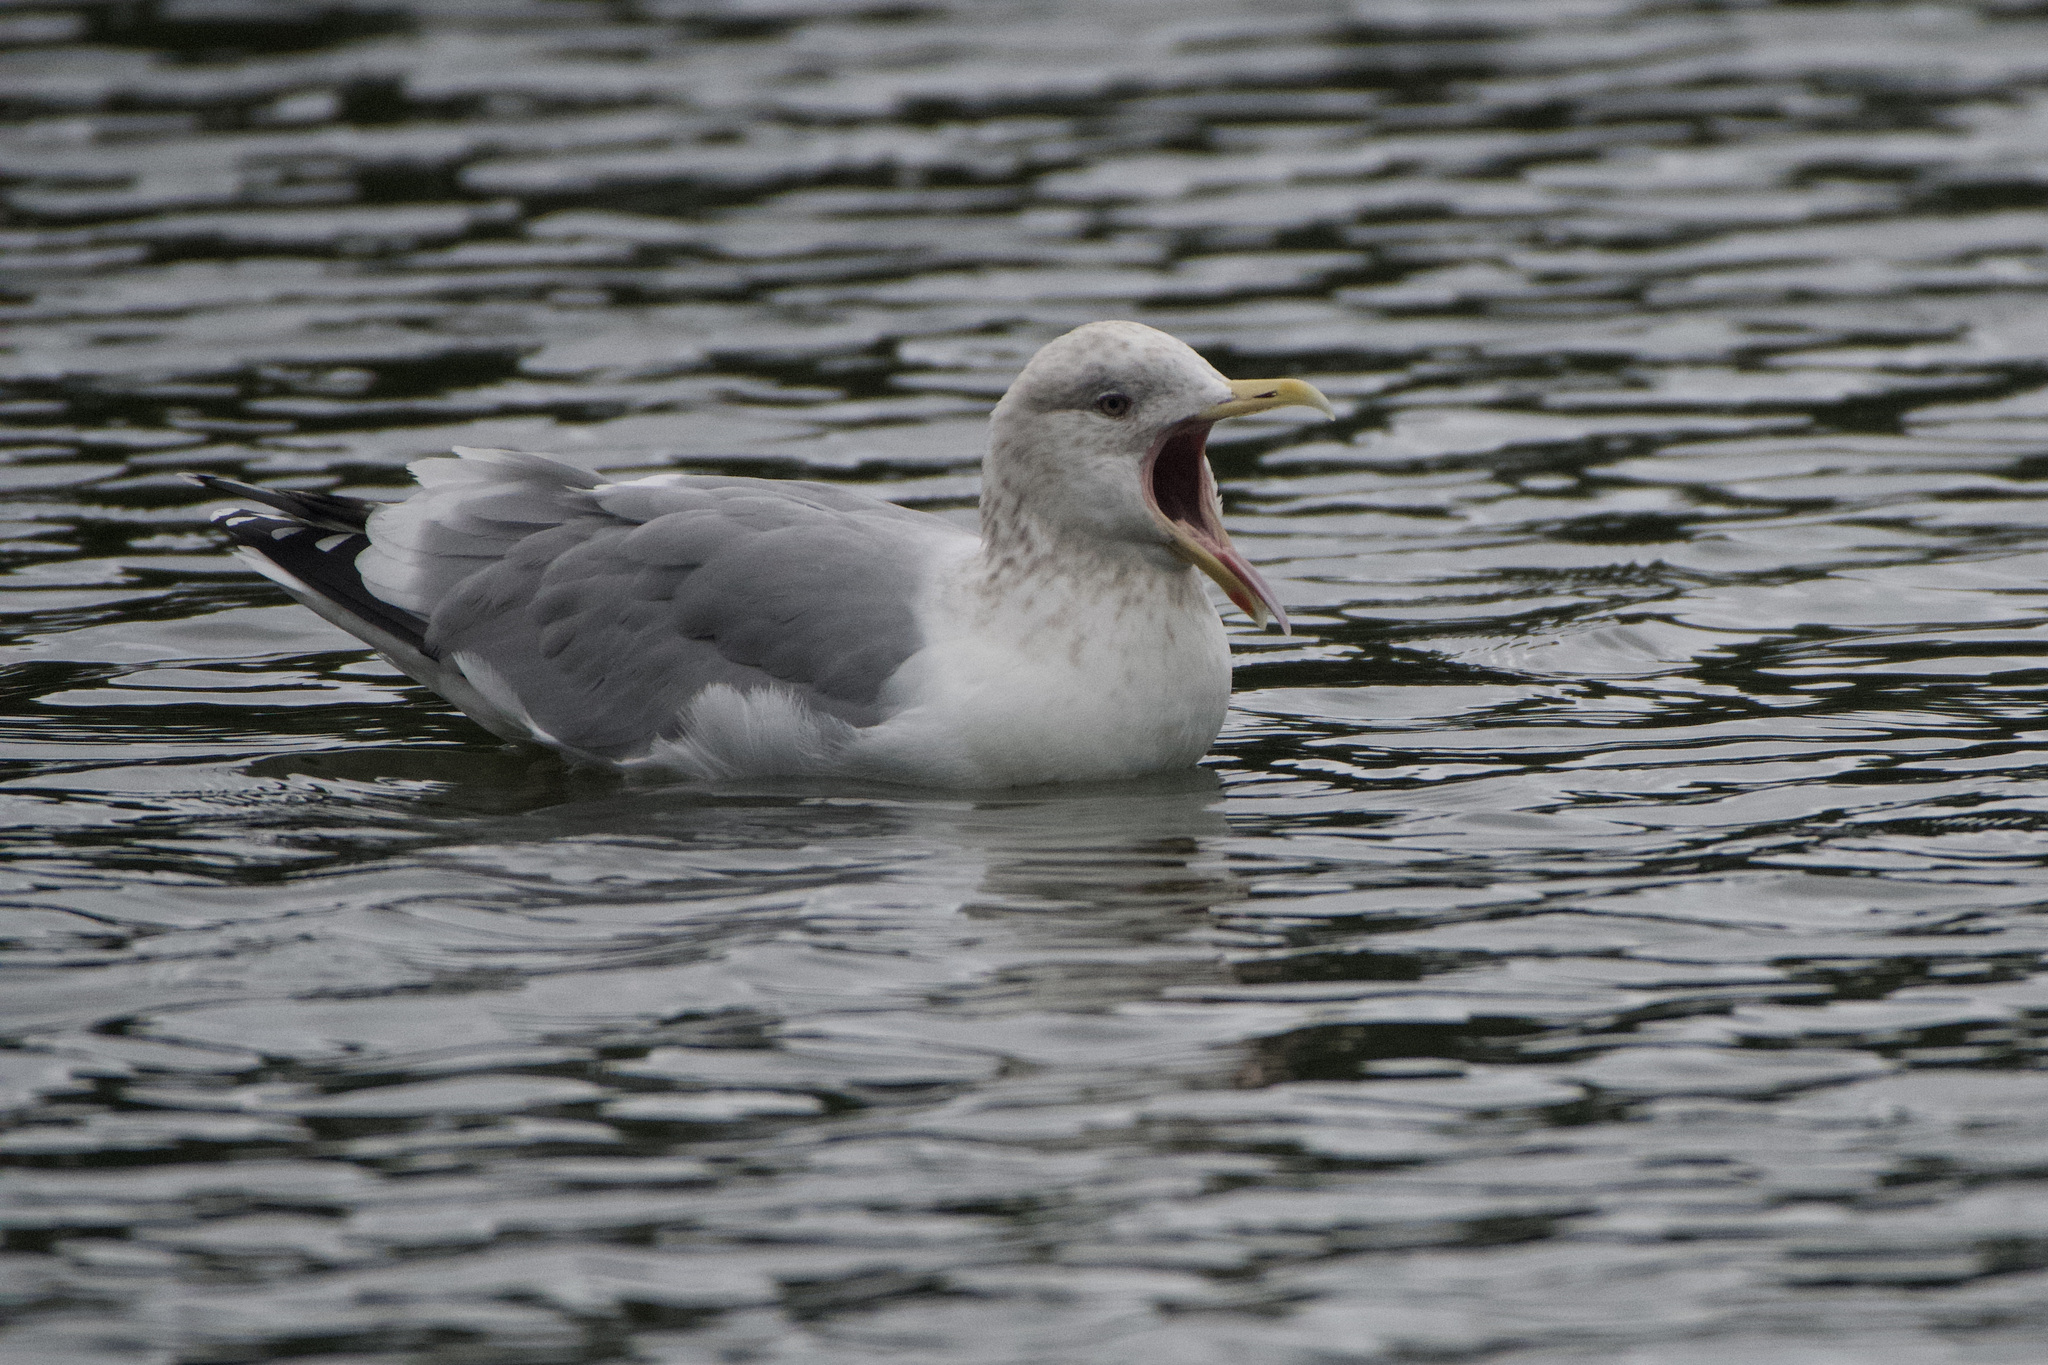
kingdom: Animalia
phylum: Chordata
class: Aves
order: Charadriiformes
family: Laridae
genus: Larus
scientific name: Larus
